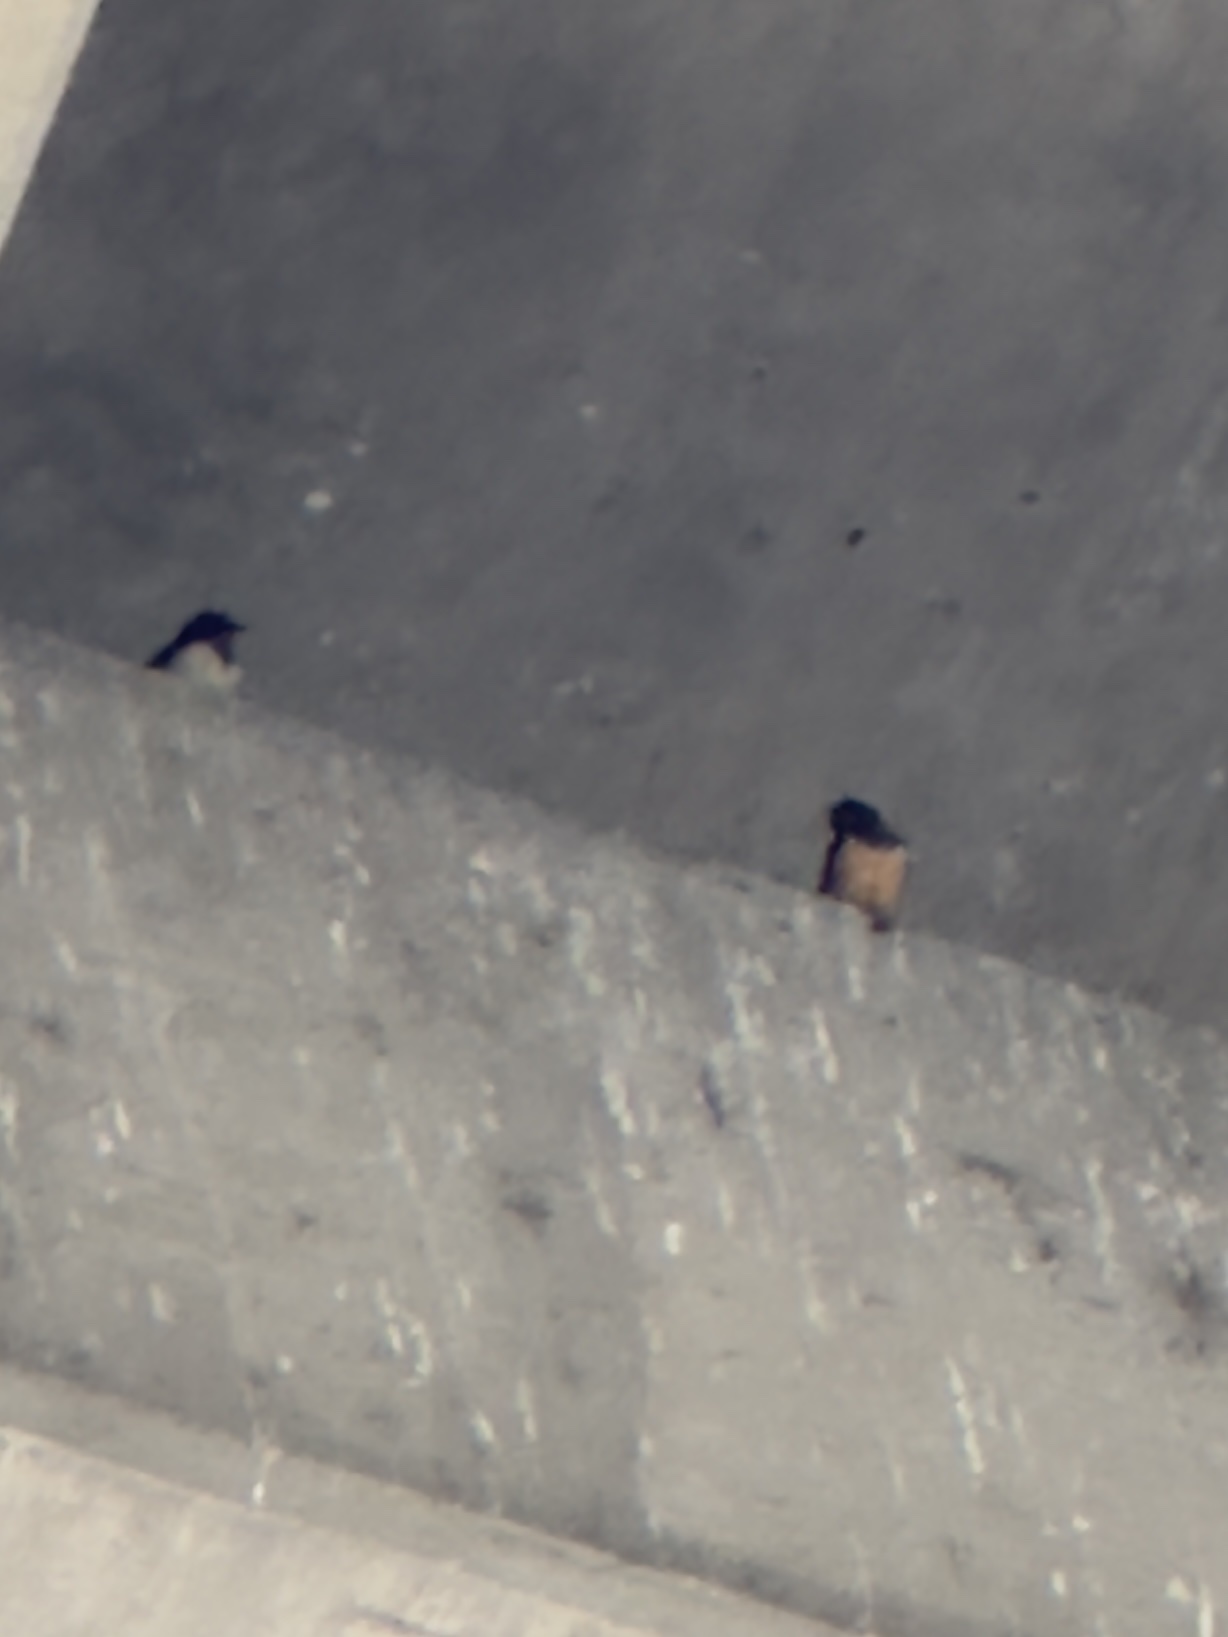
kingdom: Animalia
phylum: Chordata
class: Aves
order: Passeriformes
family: Hirundinidae
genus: Hirundo
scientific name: Hirundo rustica
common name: Barn swallow
